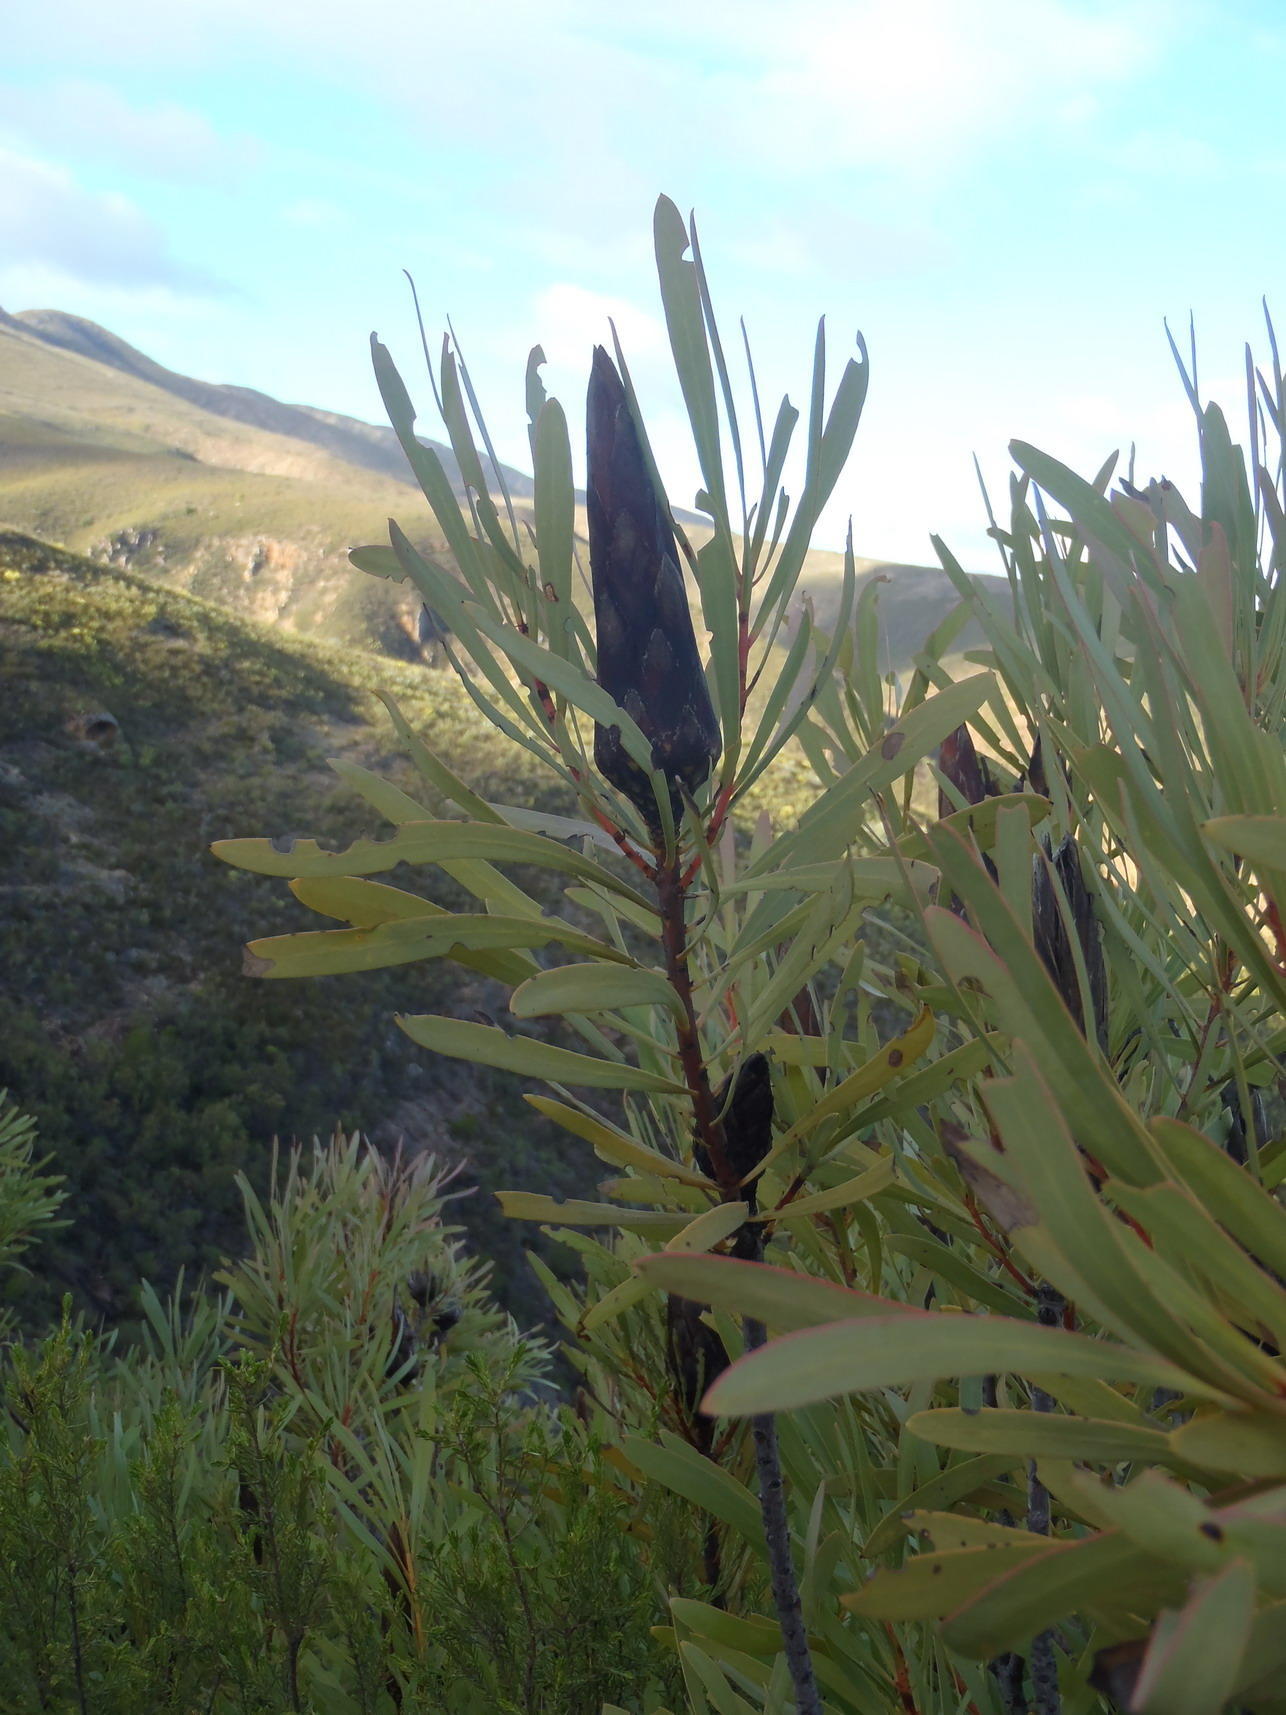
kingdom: Plantae
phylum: Tracheophyta
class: Magnoliopsida
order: Proteales
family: Proteaceae
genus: Protea
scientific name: Protea repens
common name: Sugarbush
